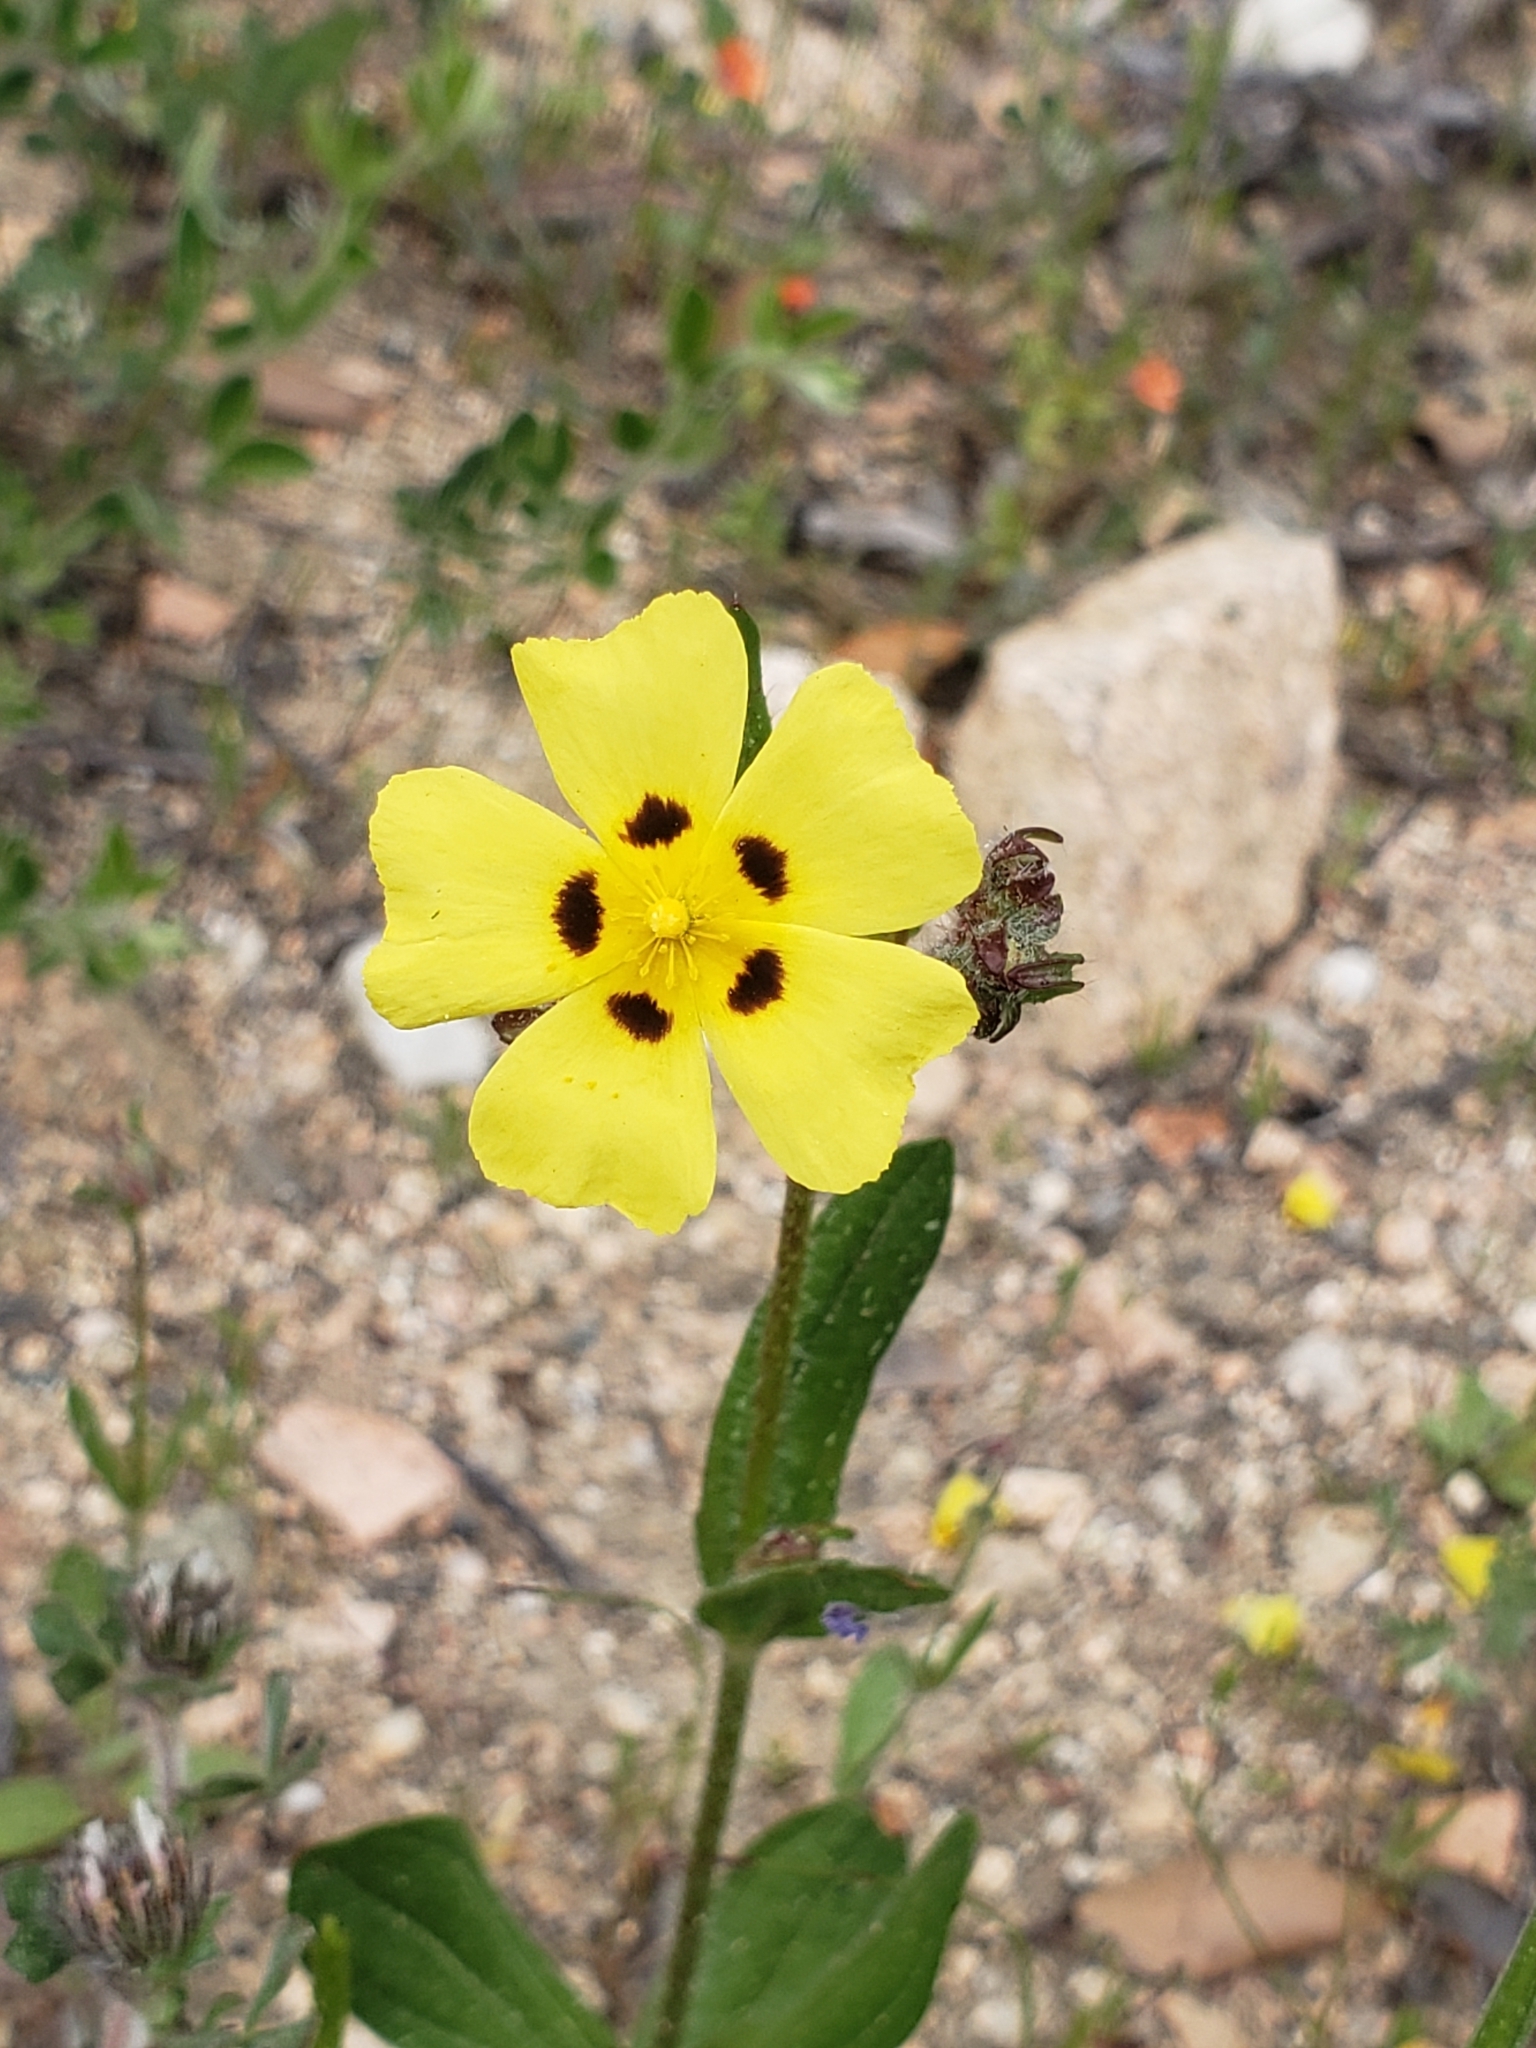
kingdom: Plantae
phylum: Tracheophyta
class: Magnoliopsida
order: Malvales
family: Cistaceae
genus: Tuberaria
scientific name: Tuberaria guttata
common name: Spotted rock-rose
